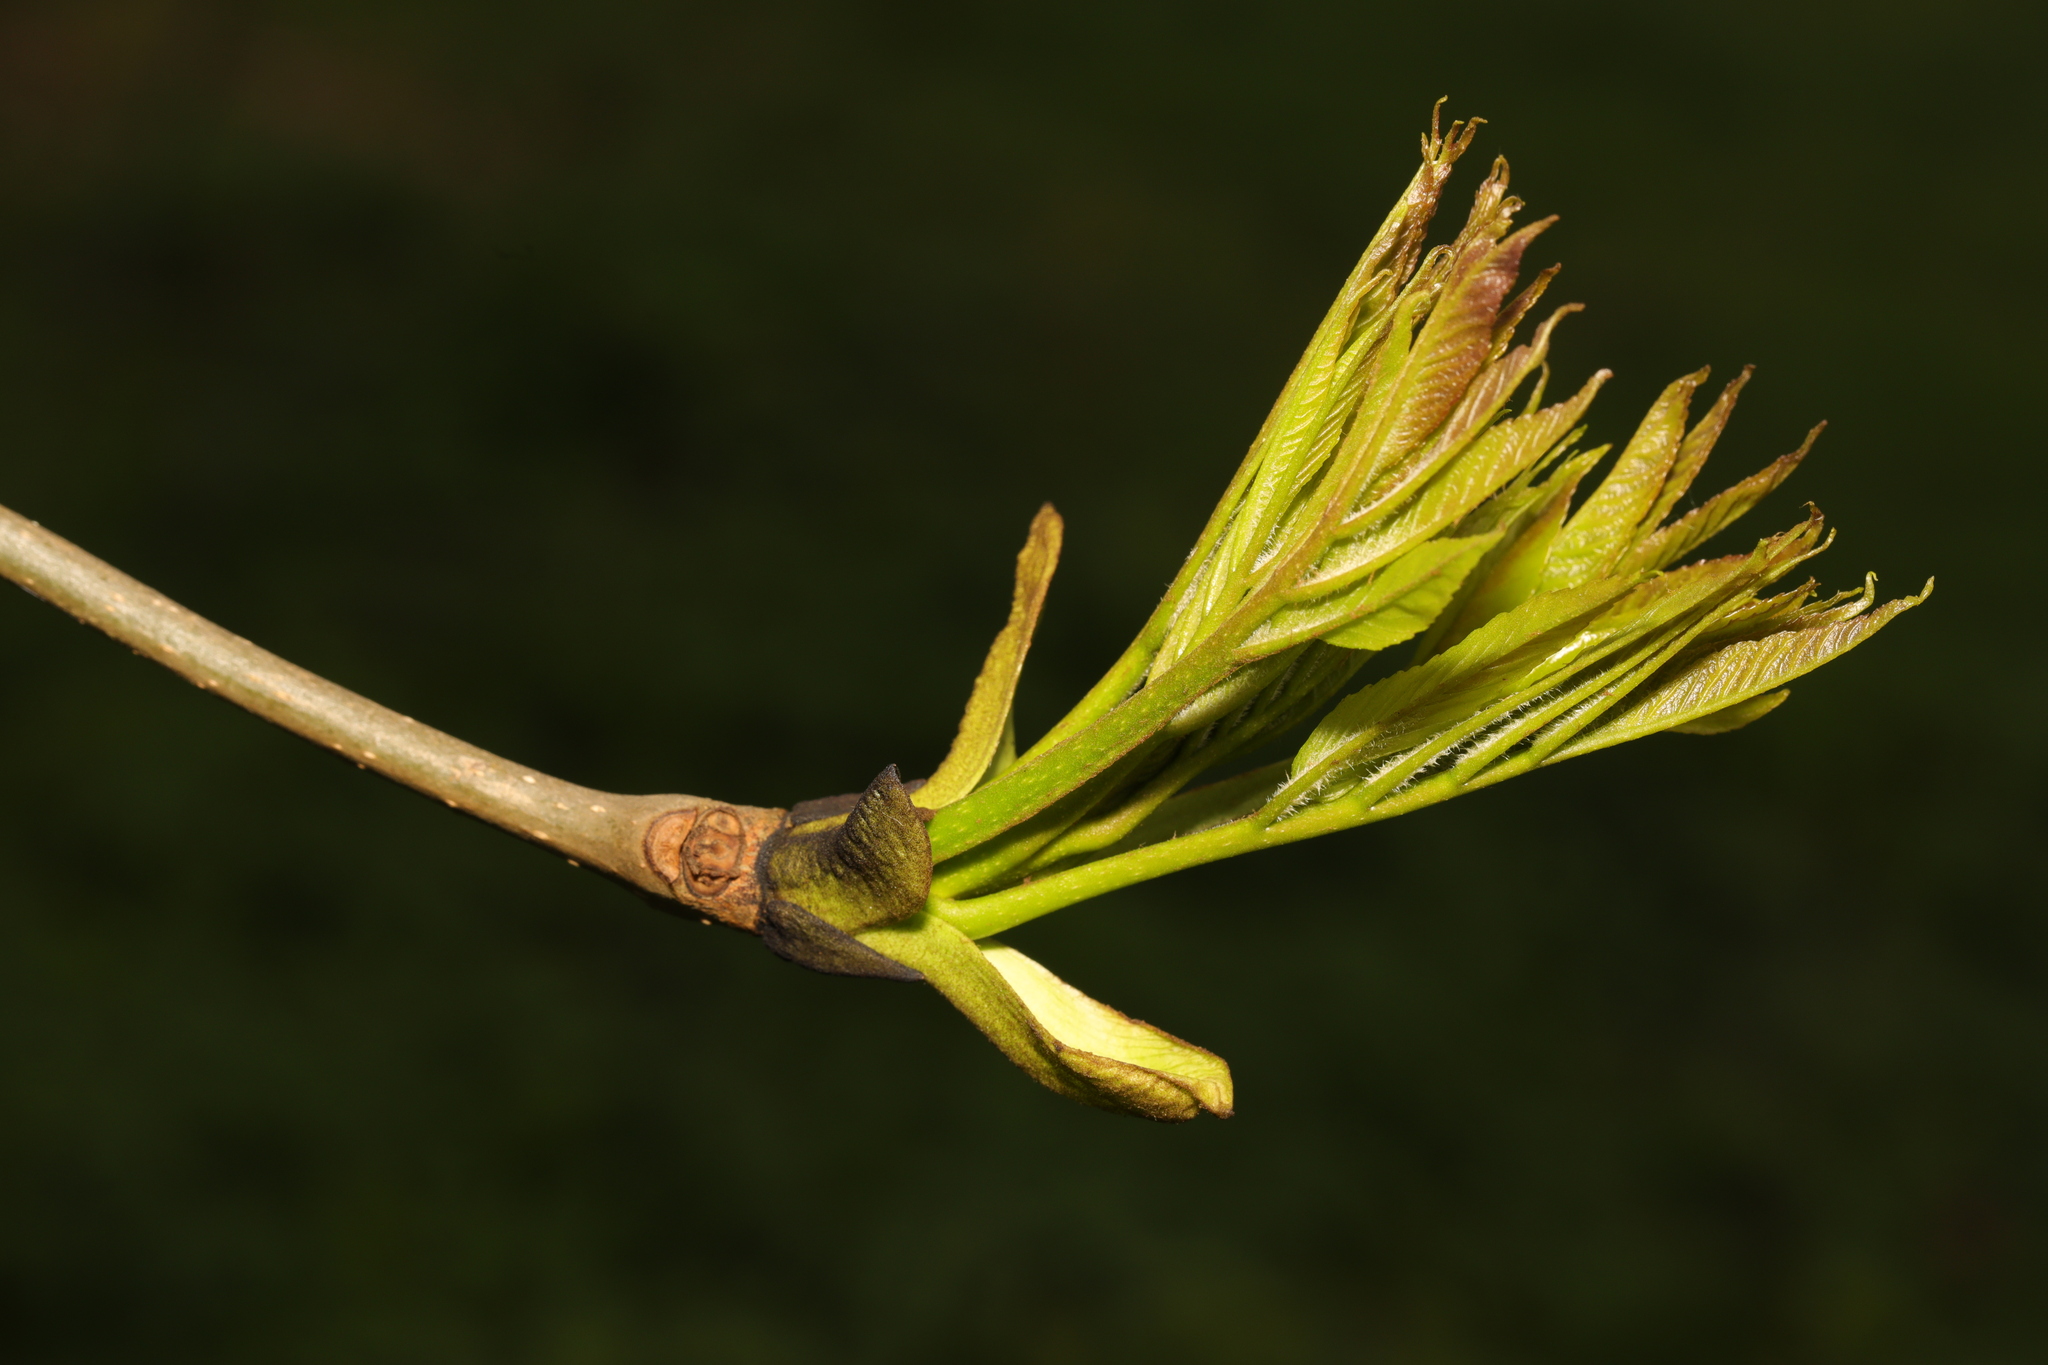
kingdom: Plantae
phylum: Tracheophyta
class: Magnoliopsida
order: Lamiales
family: Oleaceae
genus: Fraxinus
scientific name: Fraxinus excelsior
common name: European ash
